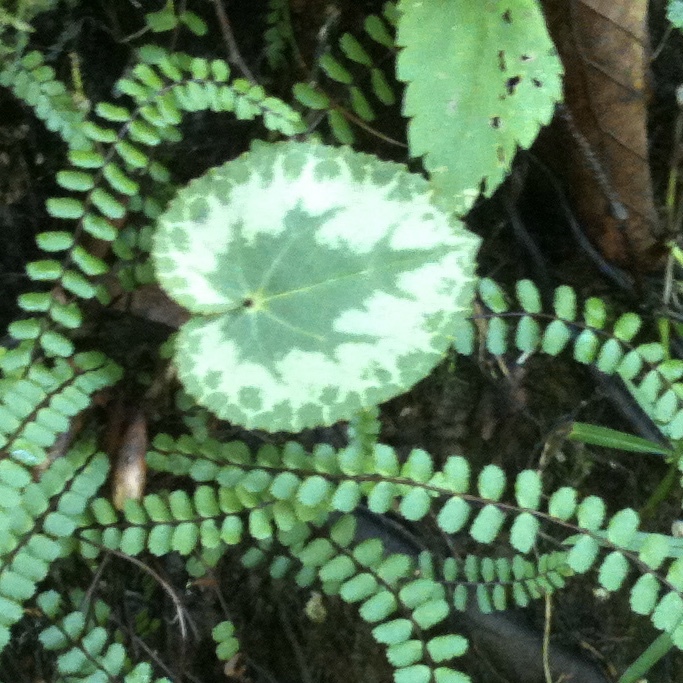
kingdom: Plantae
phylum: Tracheophyta
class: Magnoliopsida
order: Ericales
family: Primulaceae
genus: Cyclamen
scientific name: Cyclamen purpurascens
